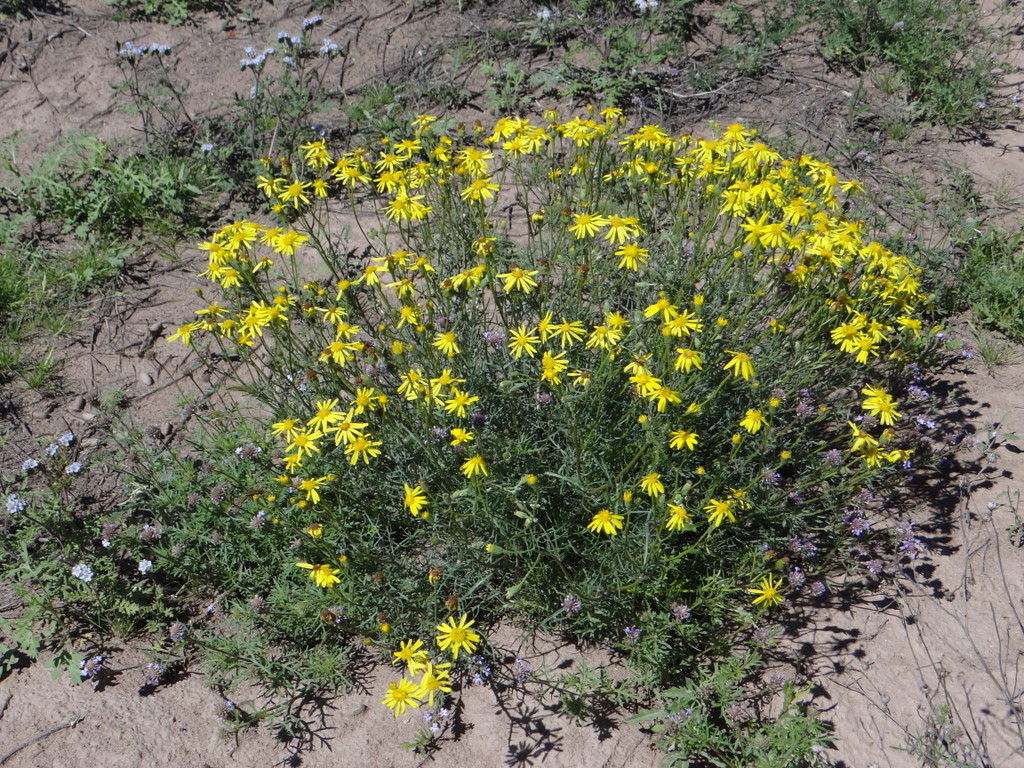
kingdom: Plantae
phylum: Tracheophyta
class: Magnoliopsida
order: Asterales
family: Asteraceae
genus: Senecio
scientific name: Senecio subulatus
